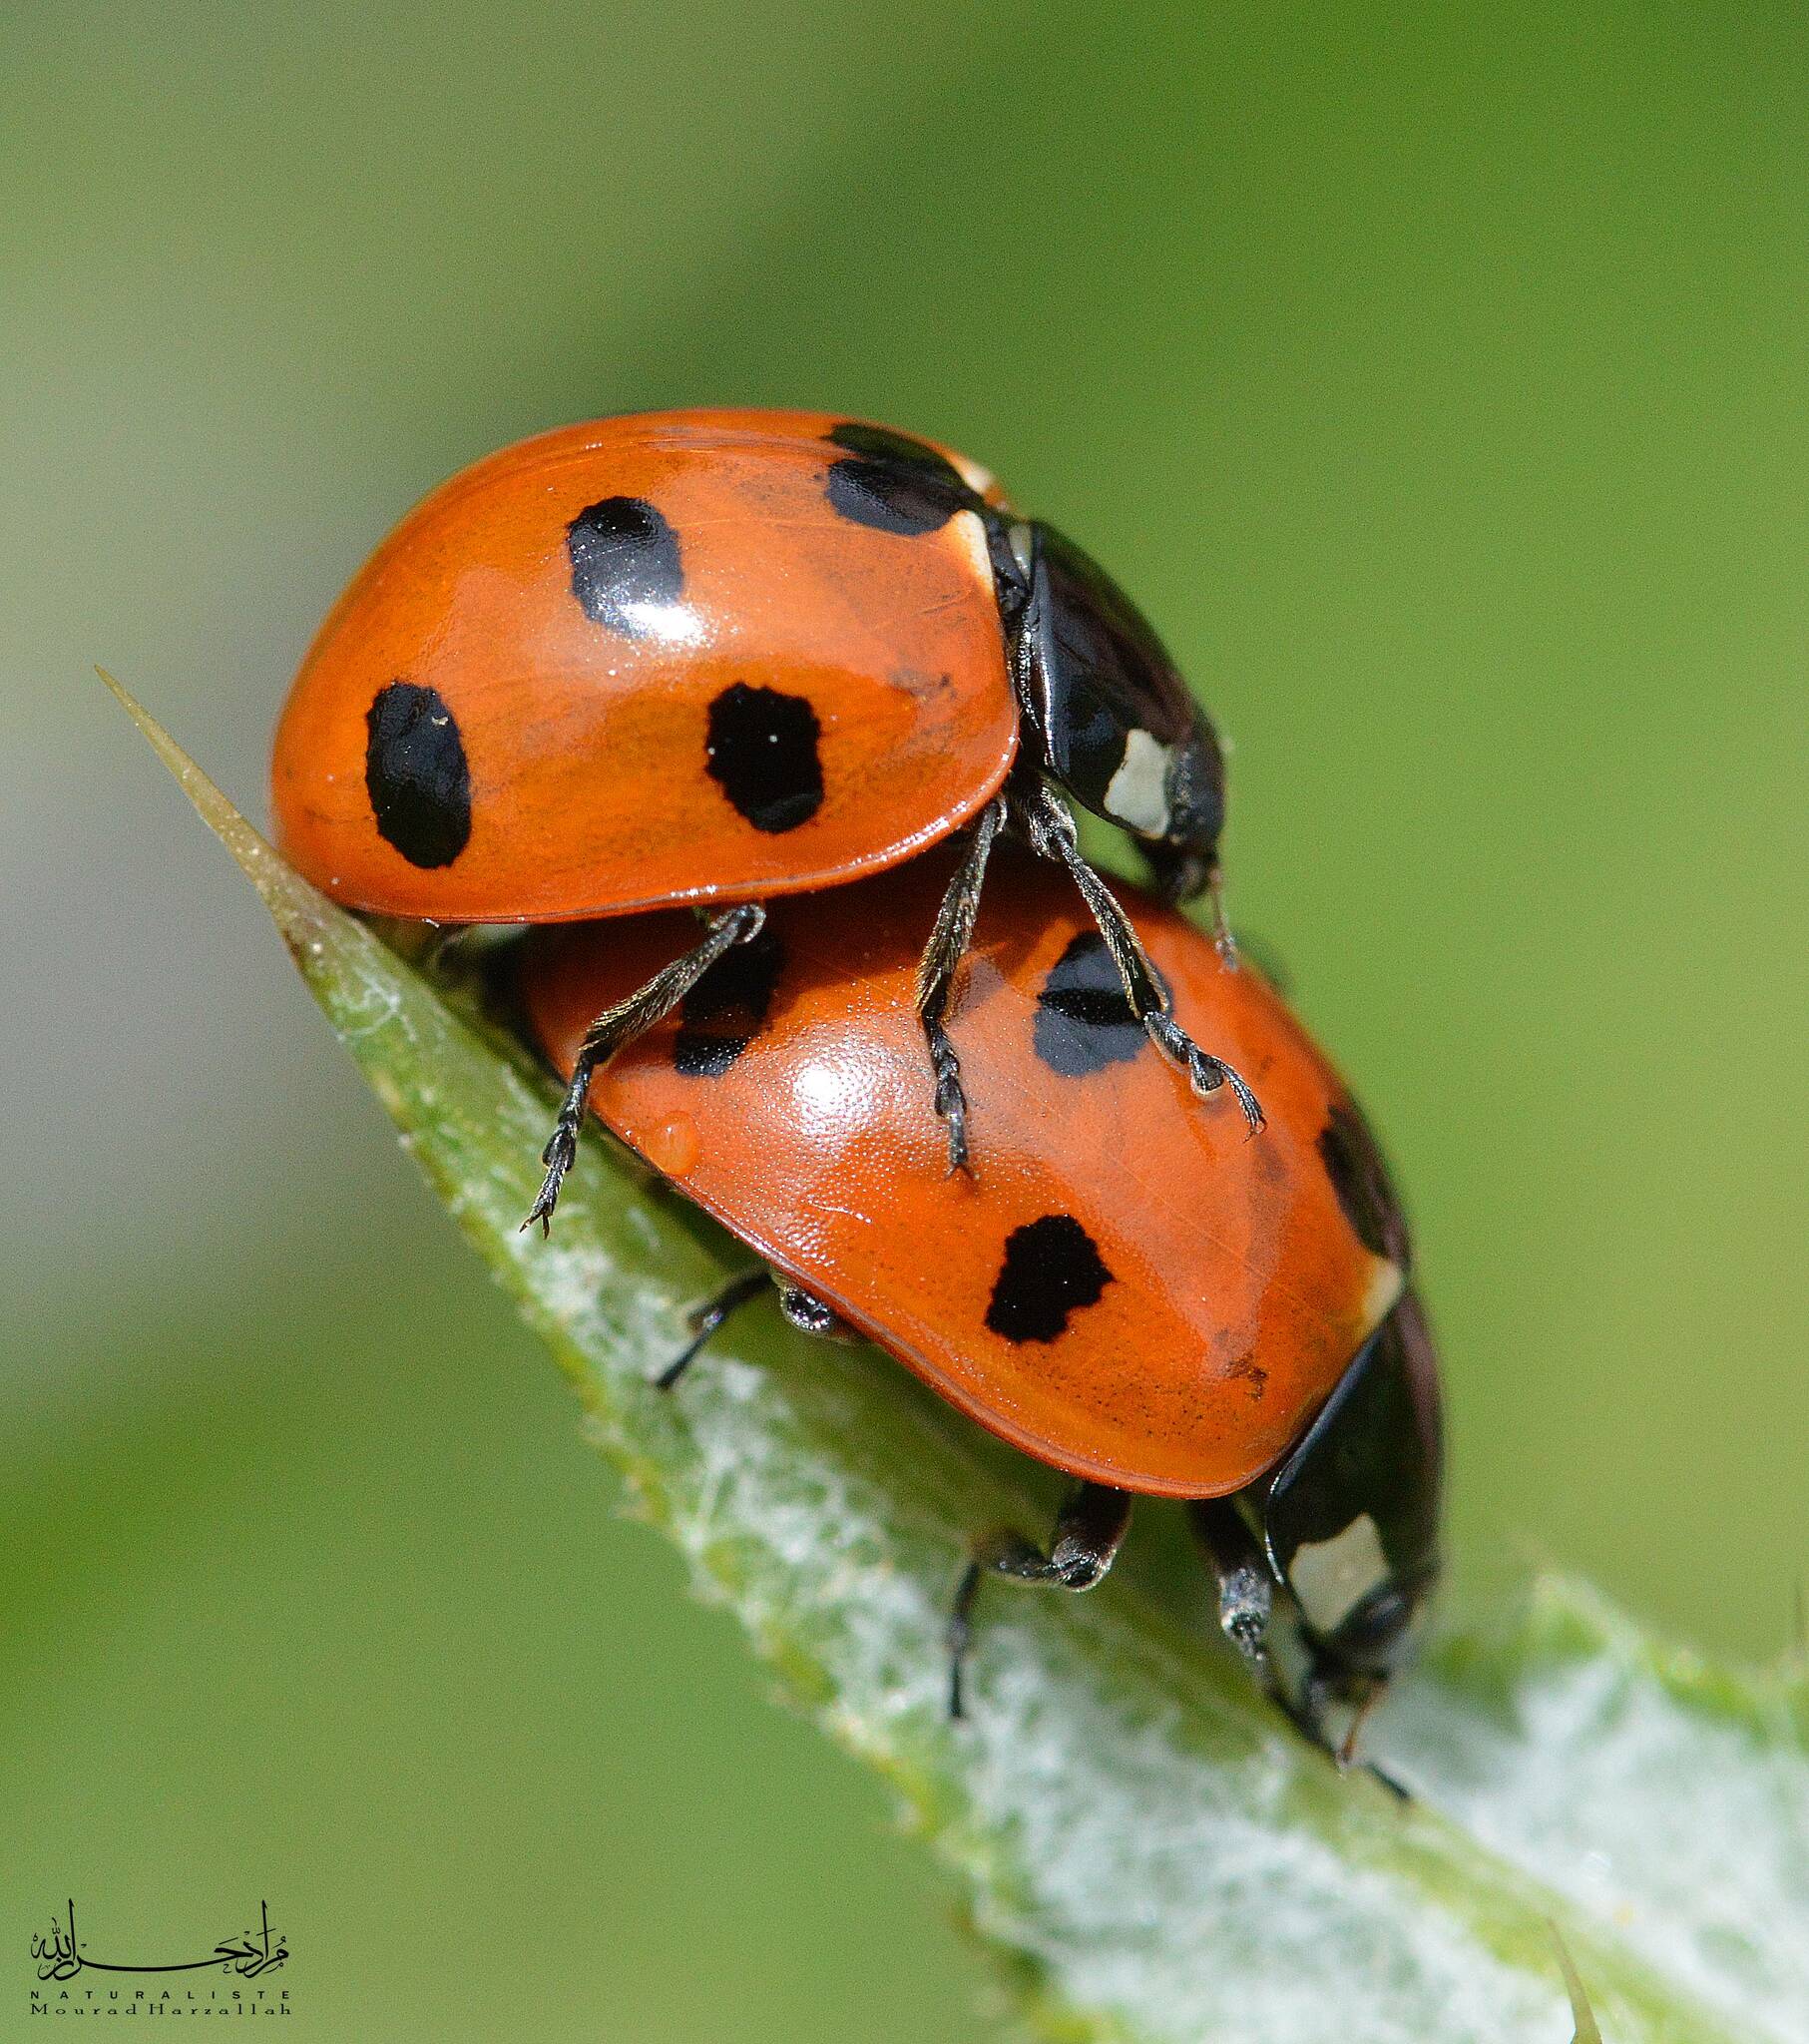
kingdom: Animalia
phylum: Arthropoda
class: Insecta
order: Coleoptera
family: Coccinellidae
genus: Coccinella
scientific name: Coccinella algerica
